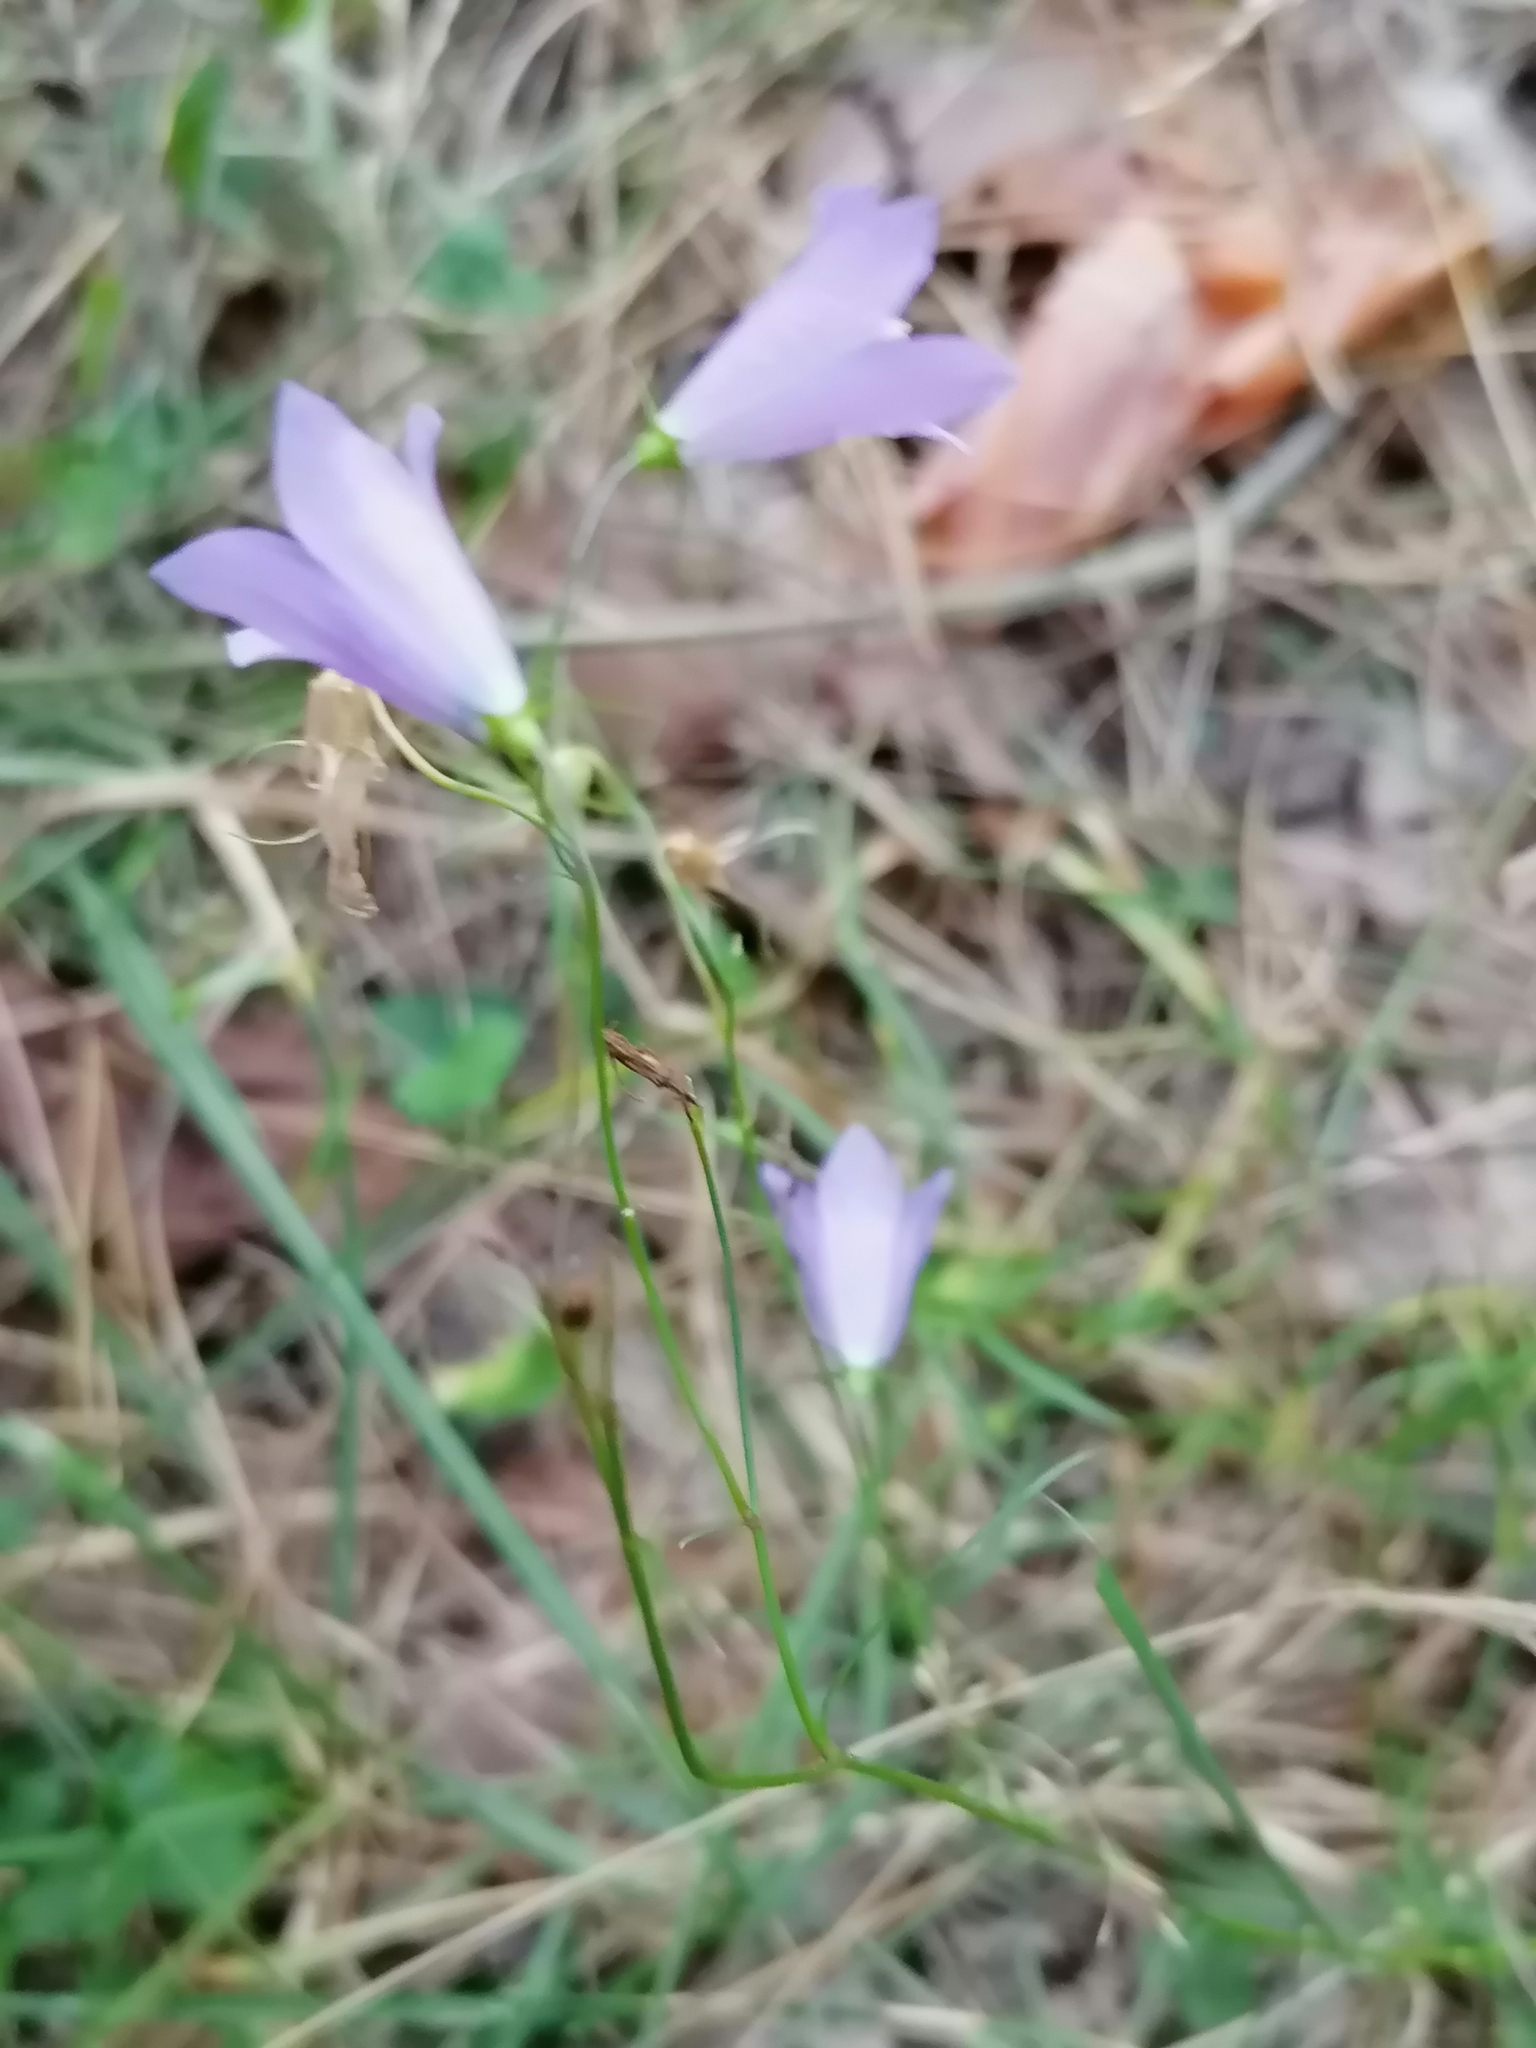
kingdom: Plantae
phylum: Tracheophyta
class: Magnoliopsida
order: Asterales
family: Campanulaceae
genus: Campanula
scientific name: Campanula rotundifolia
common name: Harebell
